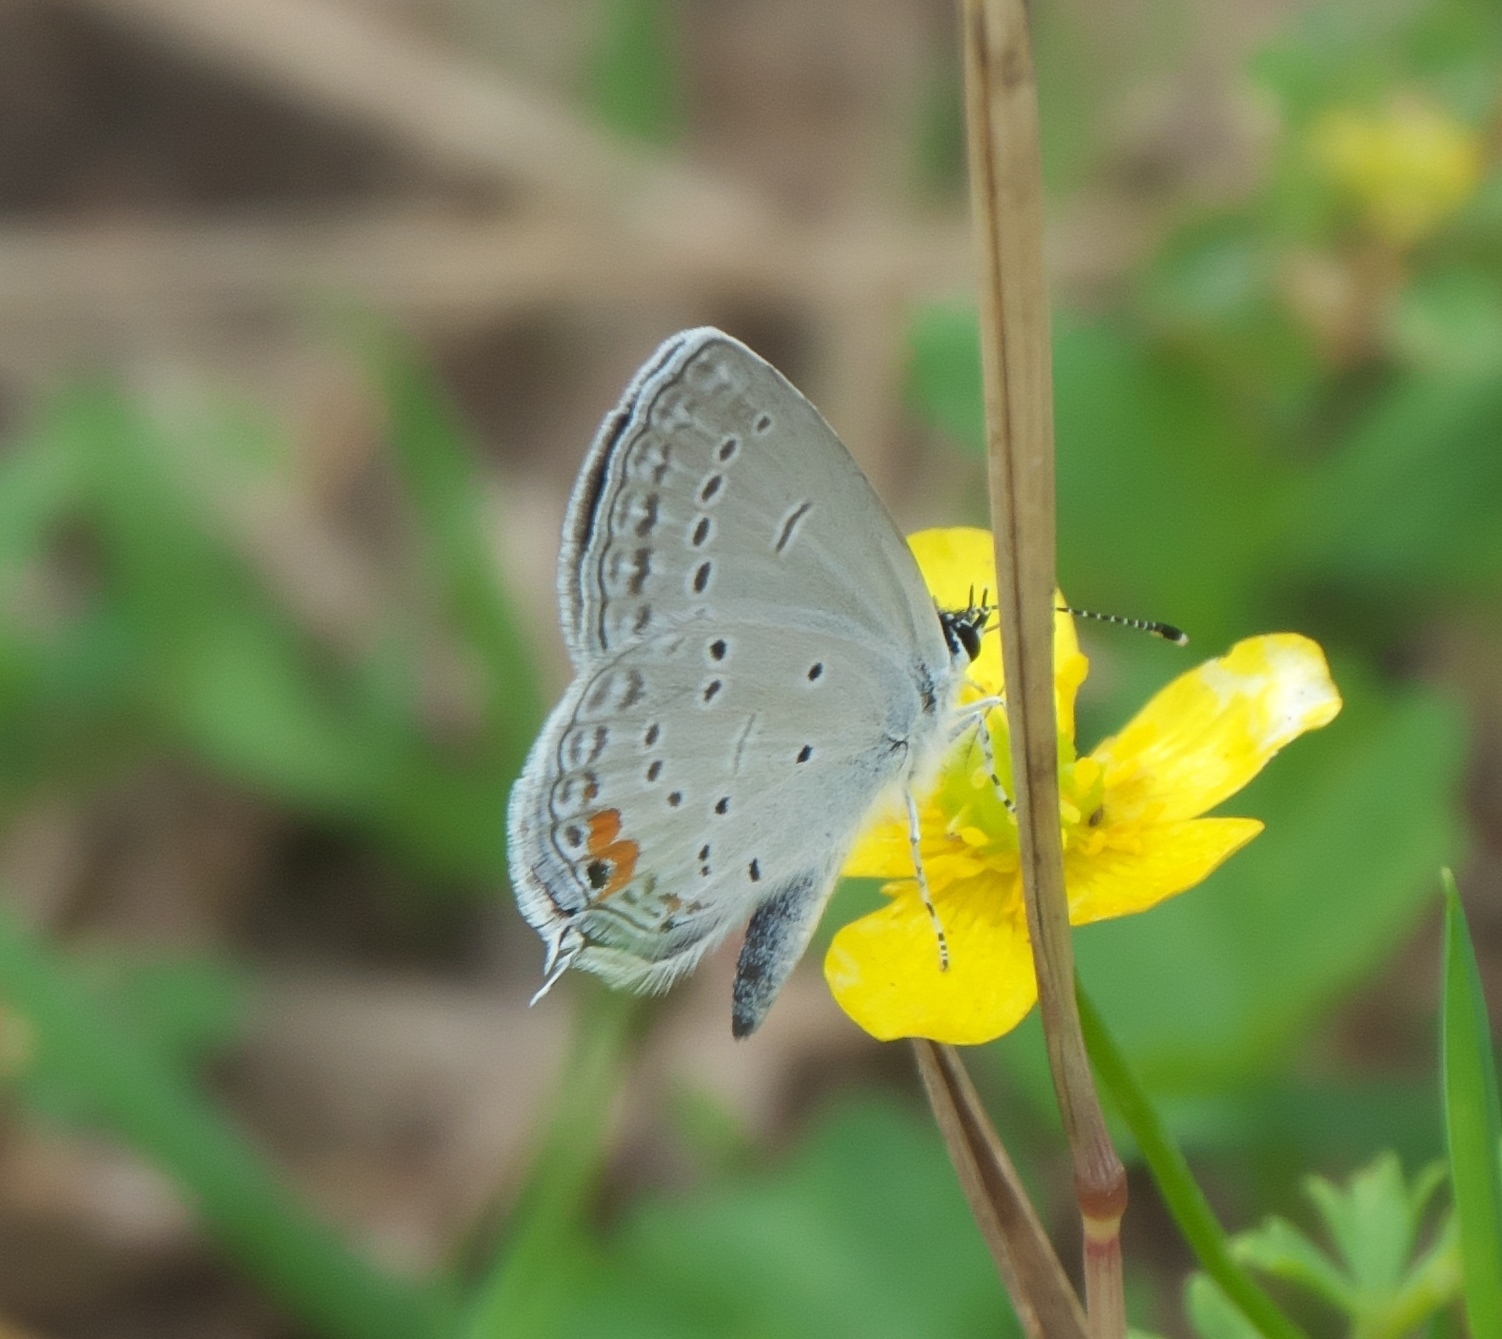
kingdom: Animalia
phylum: Arthropoda
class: Insecta
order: Lepidoptera
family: Lycaenidae
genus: Elkalyce
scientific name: Elkalyce comyntas
